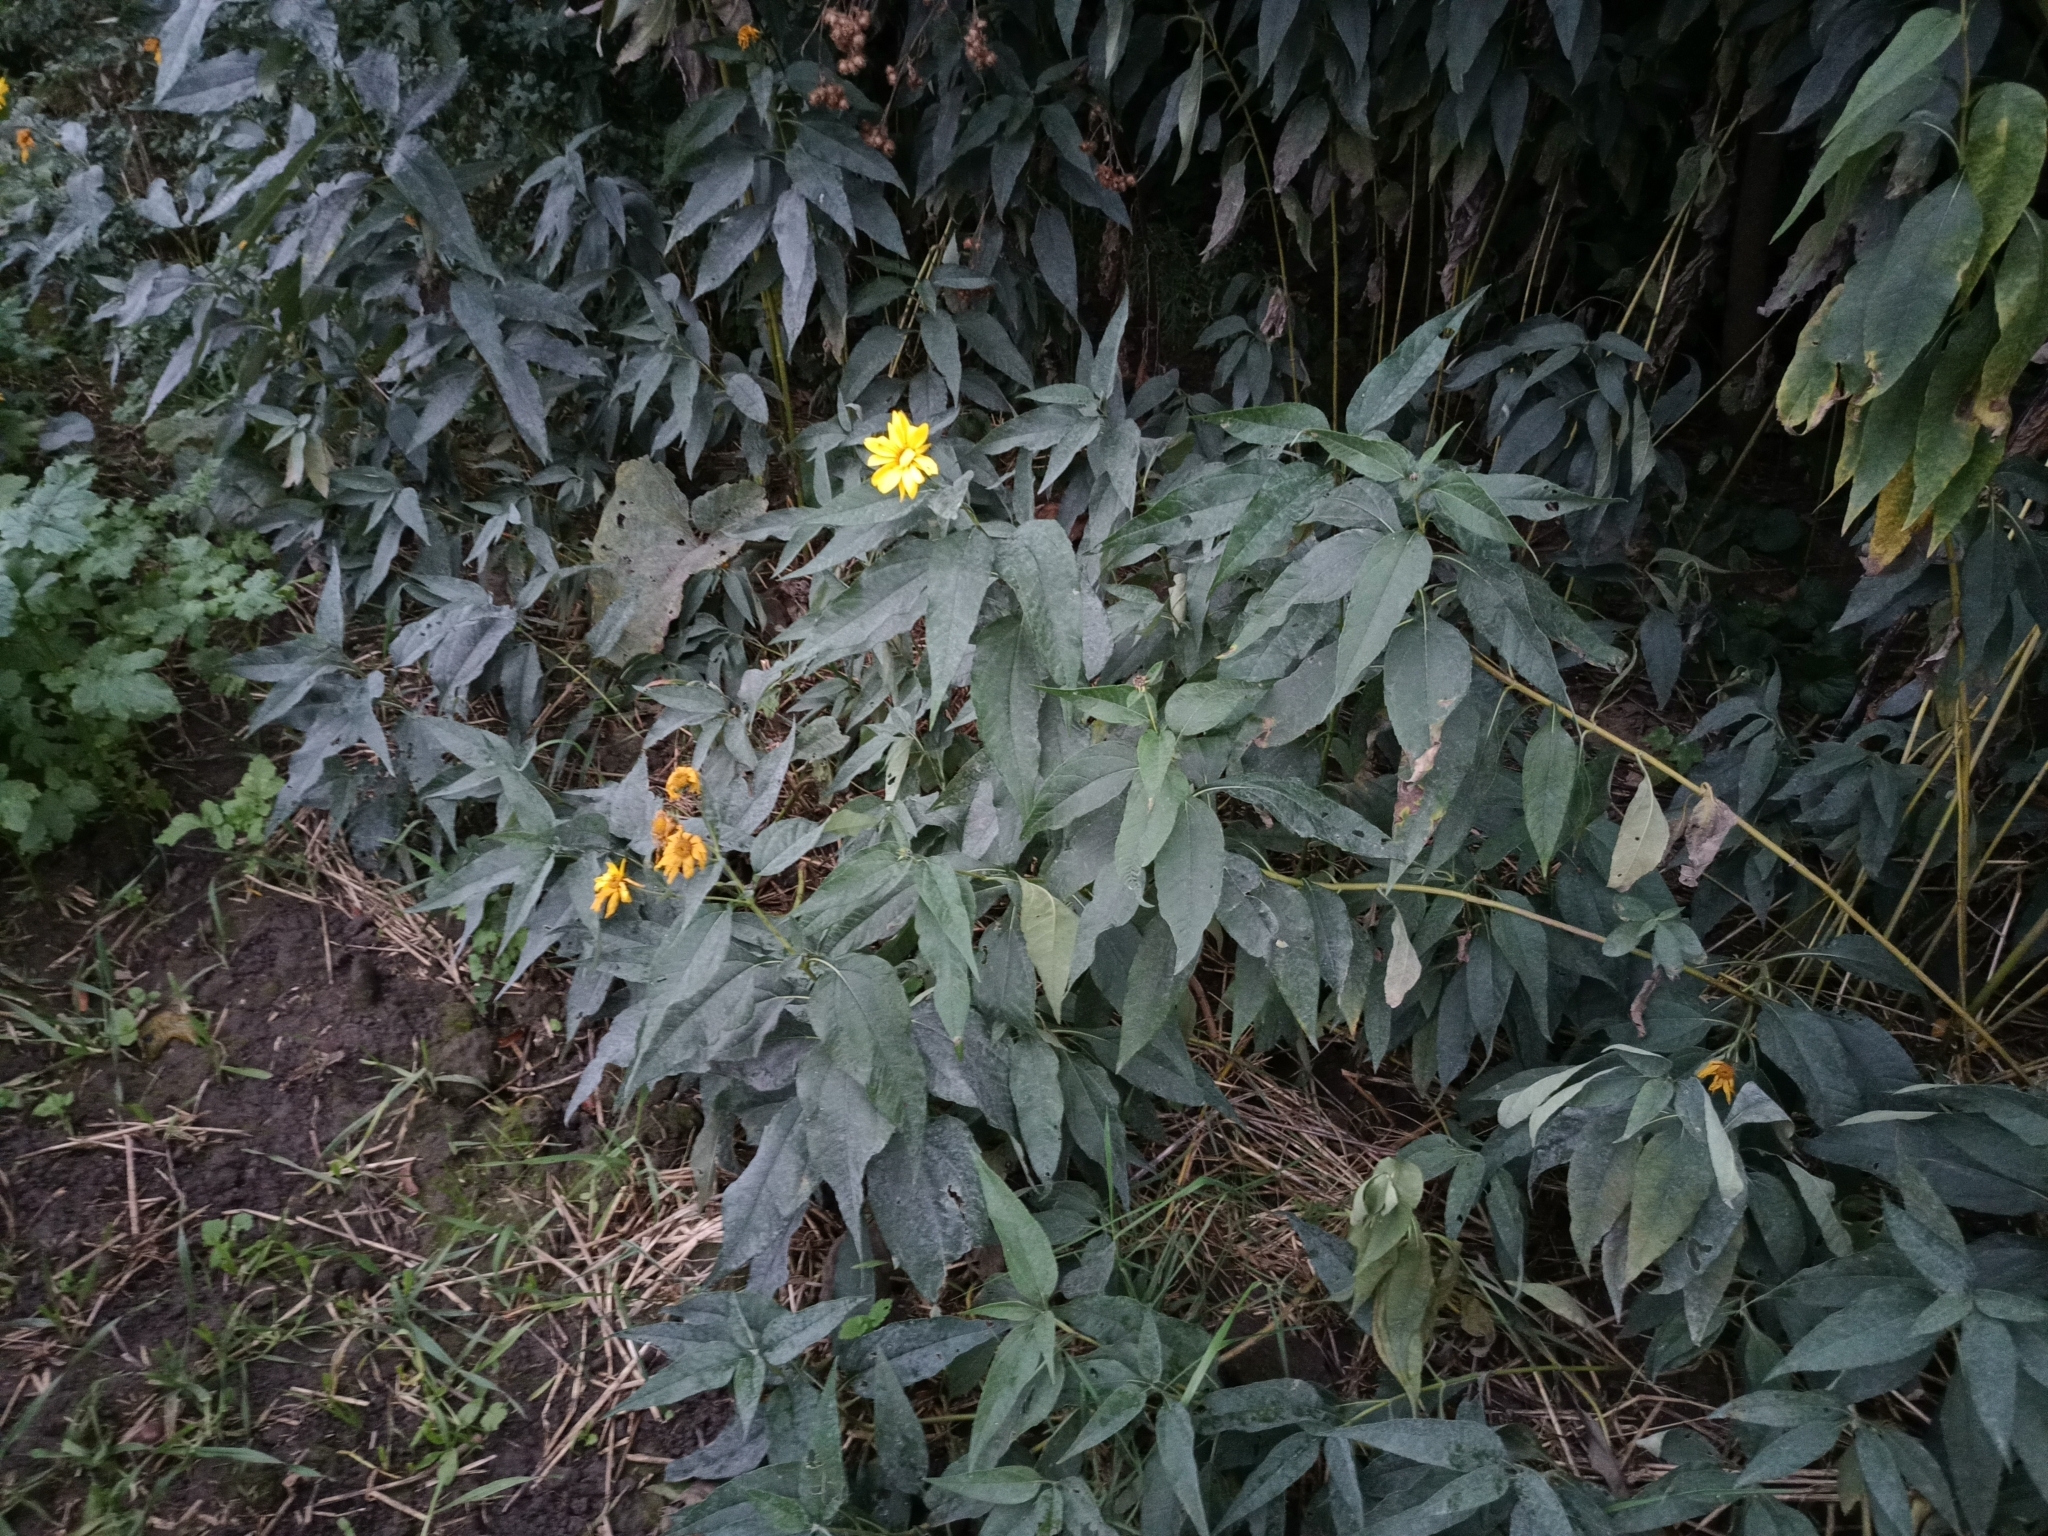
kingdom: Plantae
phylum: Tracheophyta
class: Magnoliopsida
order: Asterales
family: Asteraceae
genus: Helianthus
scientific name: Helianthus tuberosus
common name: Jerusalem artichoke
